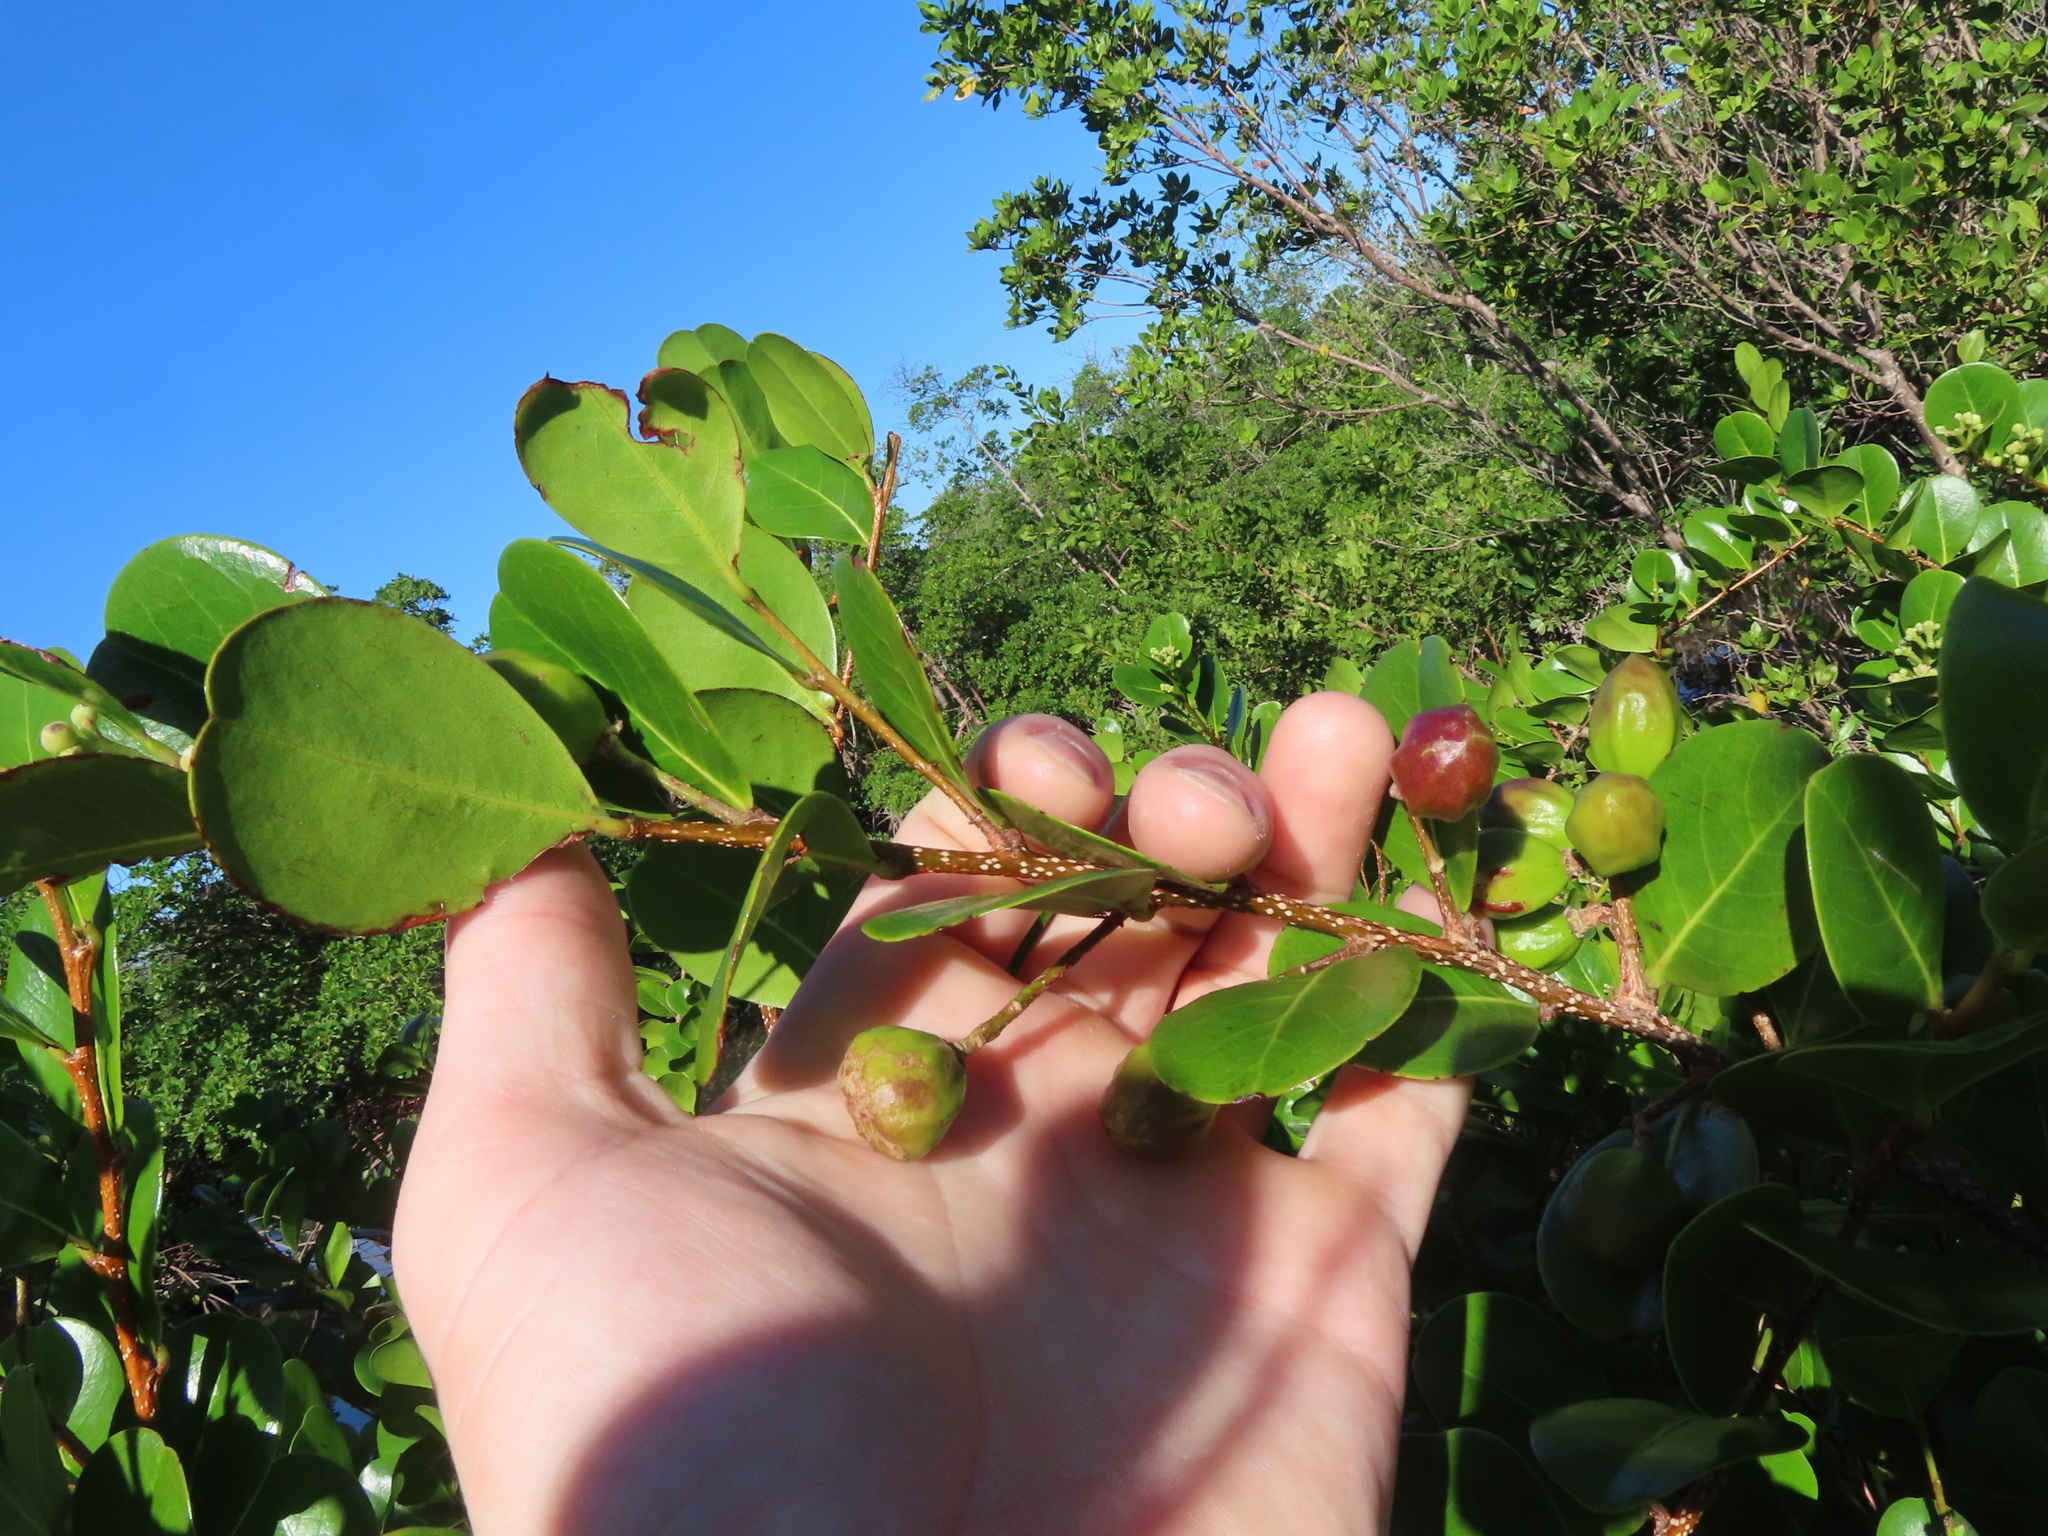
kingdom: Plantae
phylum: Tracheophyta
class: Magnoliopsida
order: Malpighiales
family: Chrysobalanaceae
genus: Chrysobalanus
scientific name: Chrysobalanus icaco
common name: Coco plum
